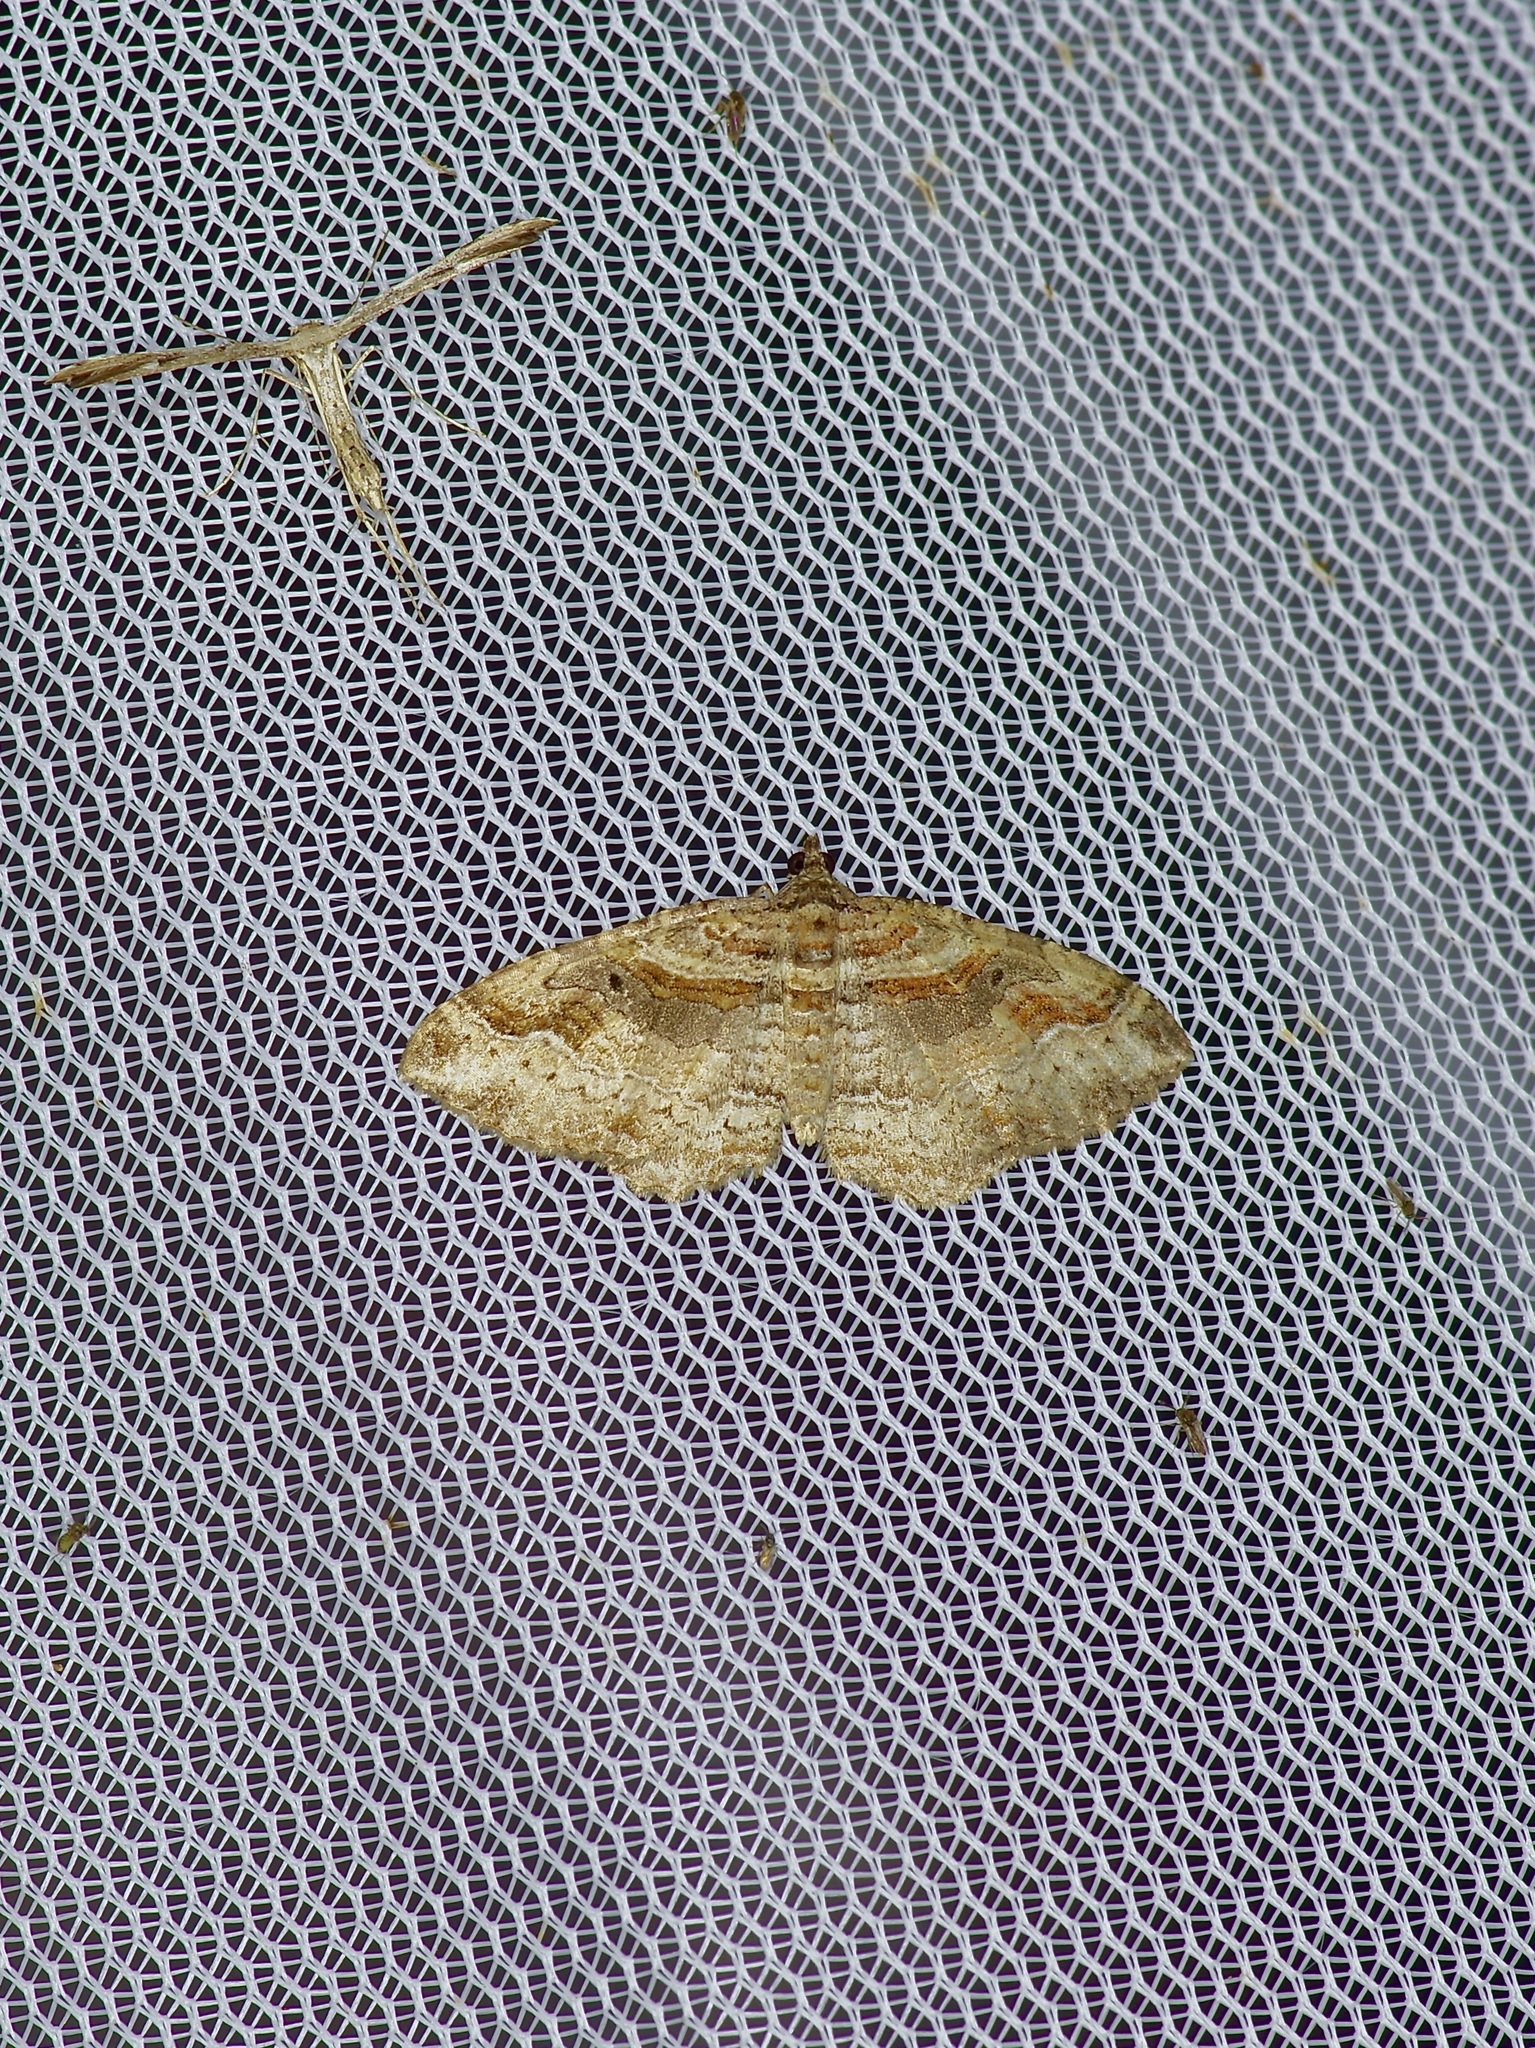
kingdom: Animalia
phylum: Arthropoda
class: Insecta
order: Lepidoptera
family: Geometridae
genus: Costaconvexa
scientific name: Costaconvexa centrostrigaria
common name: Bent-line carpet
